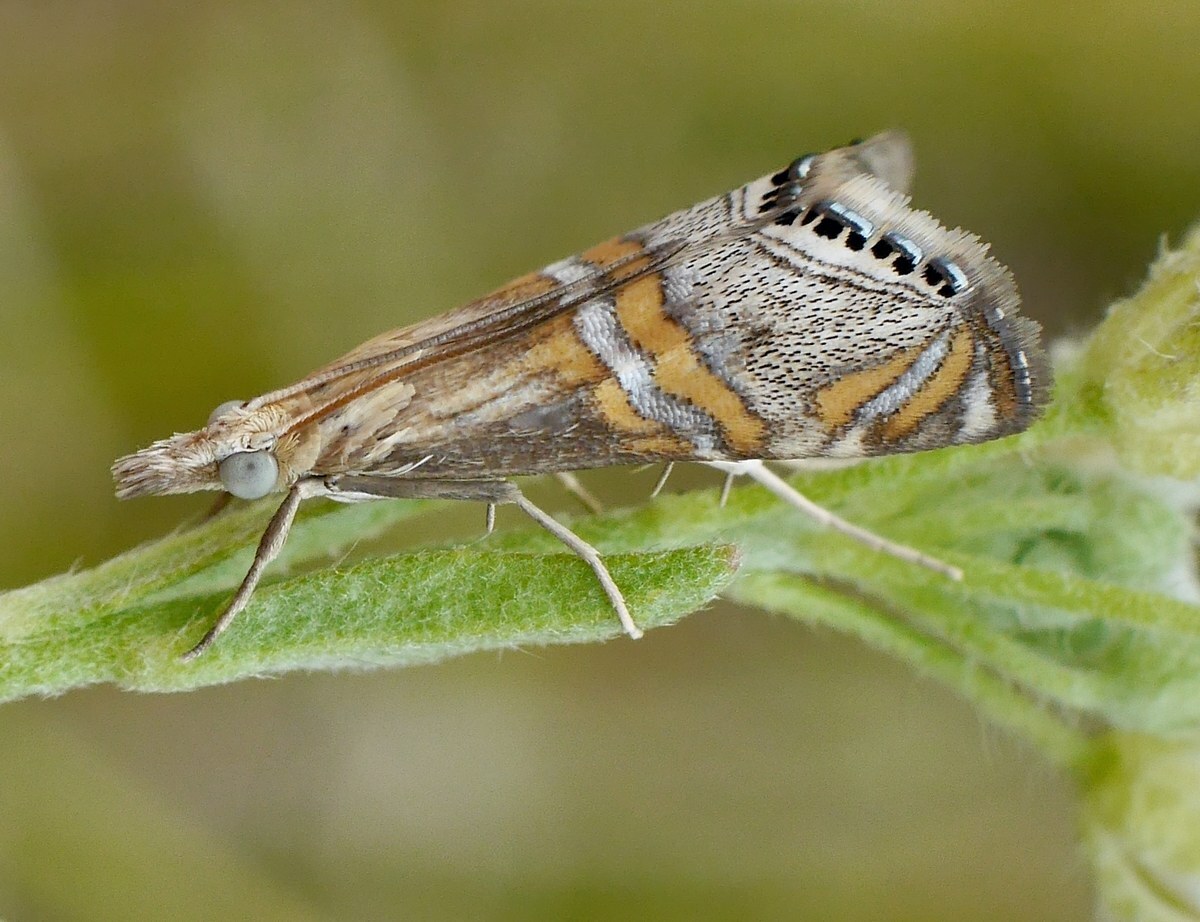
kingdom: Animalia
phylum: Arthropoda
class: Insecta
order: Lepidoptera
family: Crambidae
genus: Euchromius
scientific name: Euchromius bella
